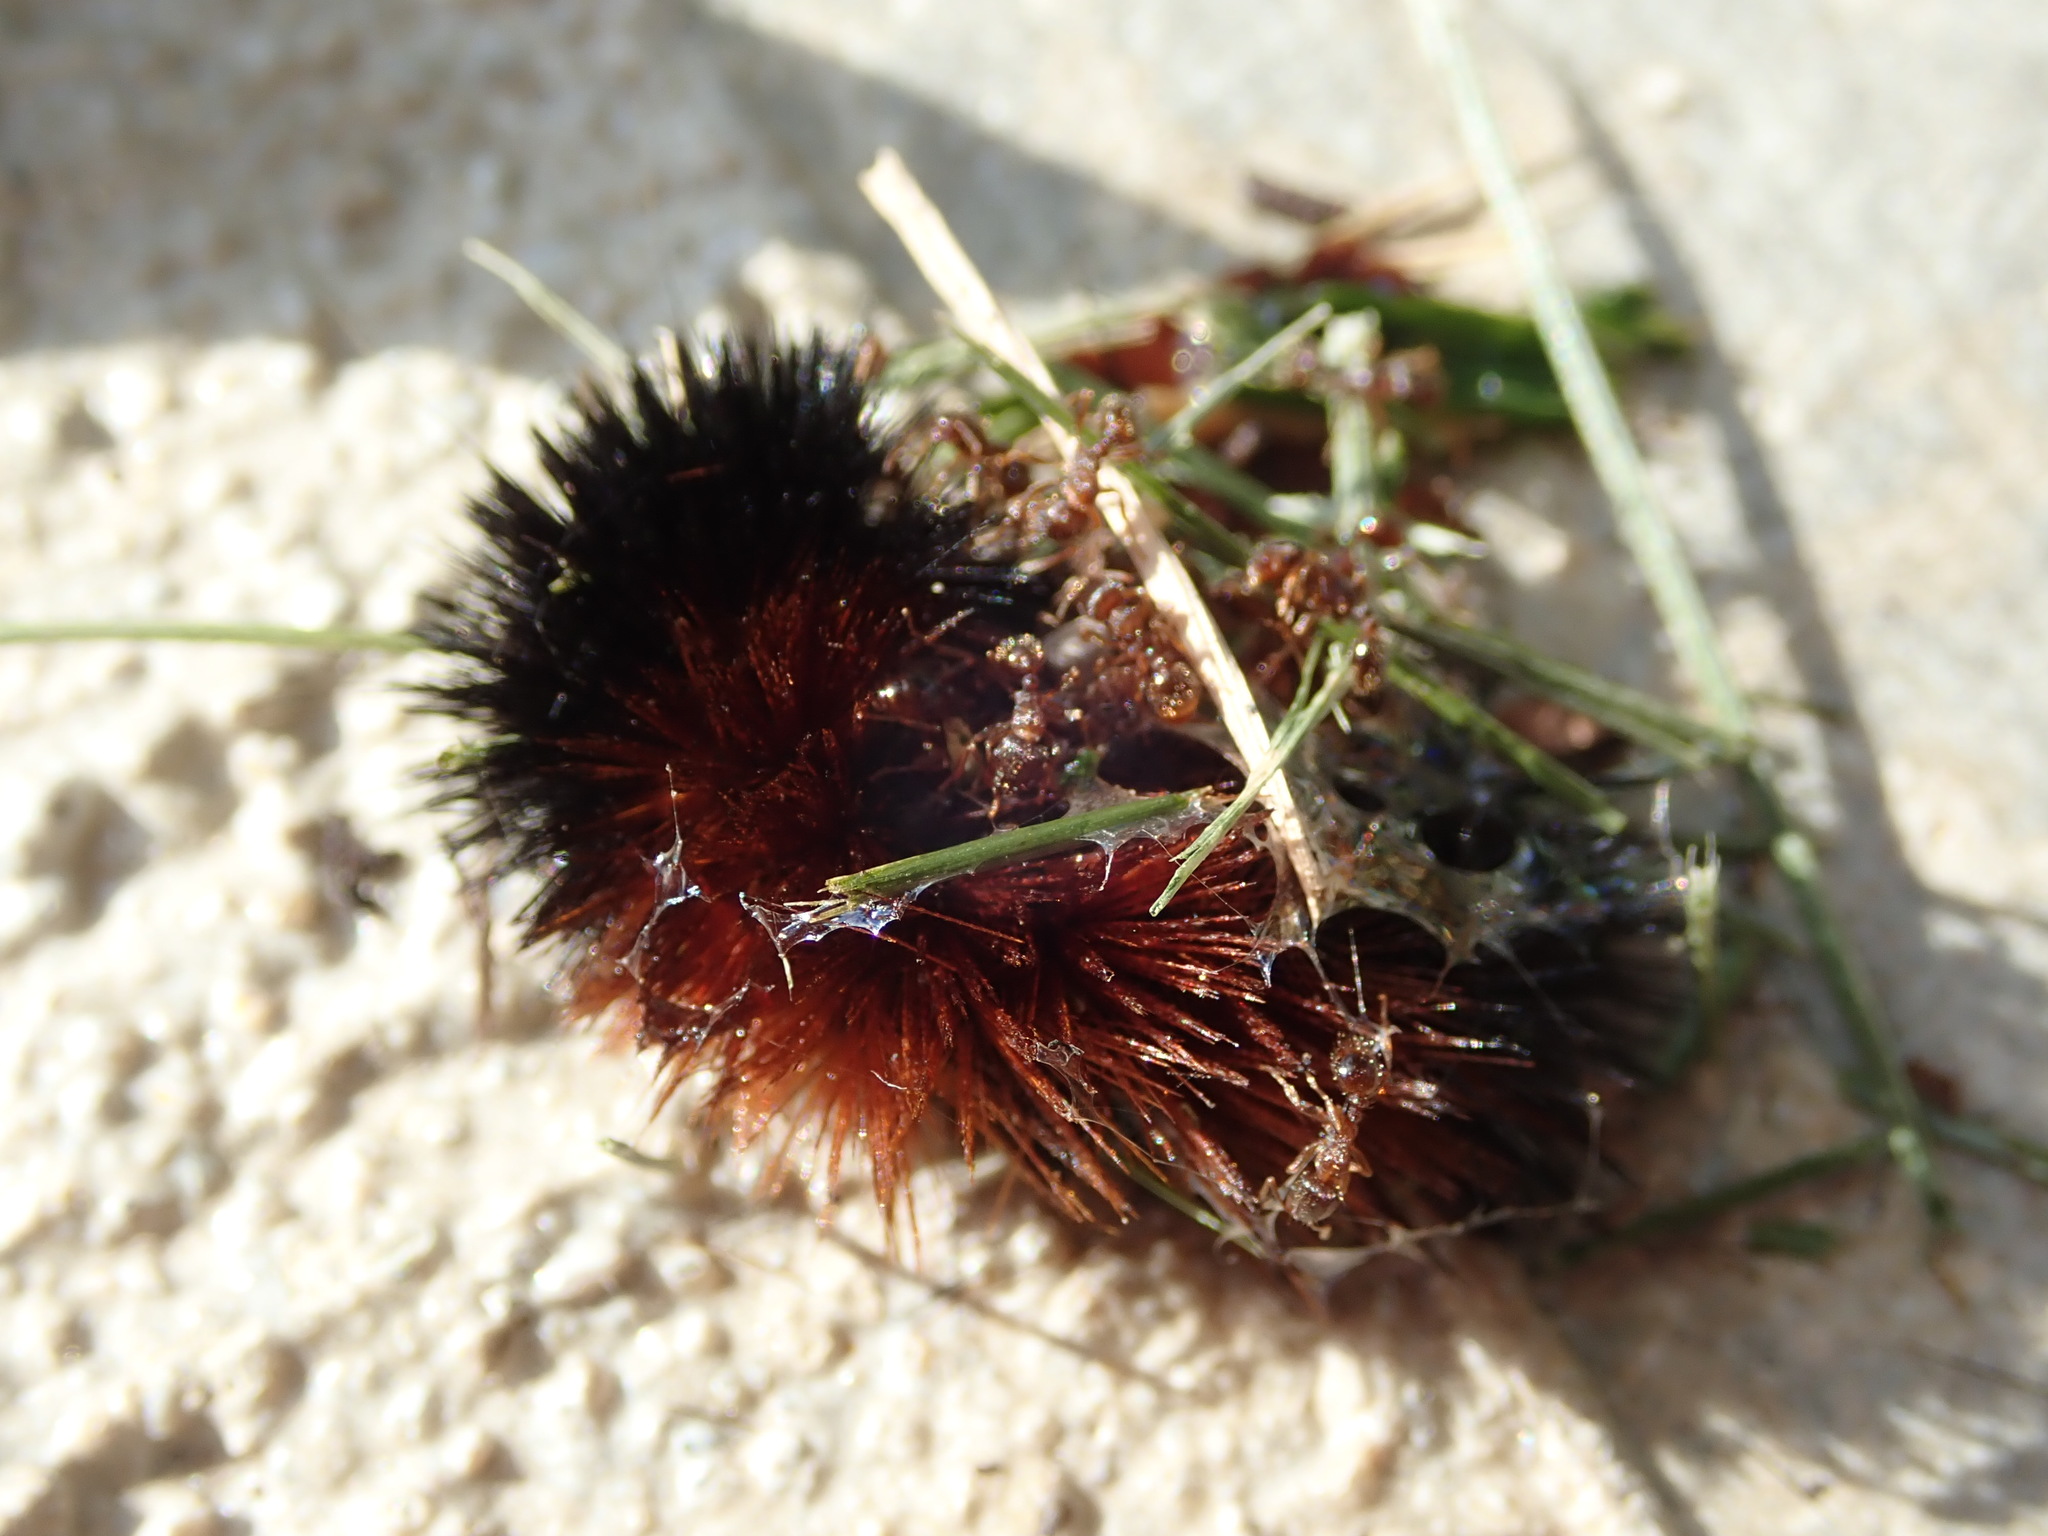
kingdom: Animalia
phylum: Arthropoda
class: Insecta
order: Lepidoptera
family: Erebidae
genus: Pyrrharctia
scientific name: Pyrrharctia isabella
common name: Isabella tiger moth
